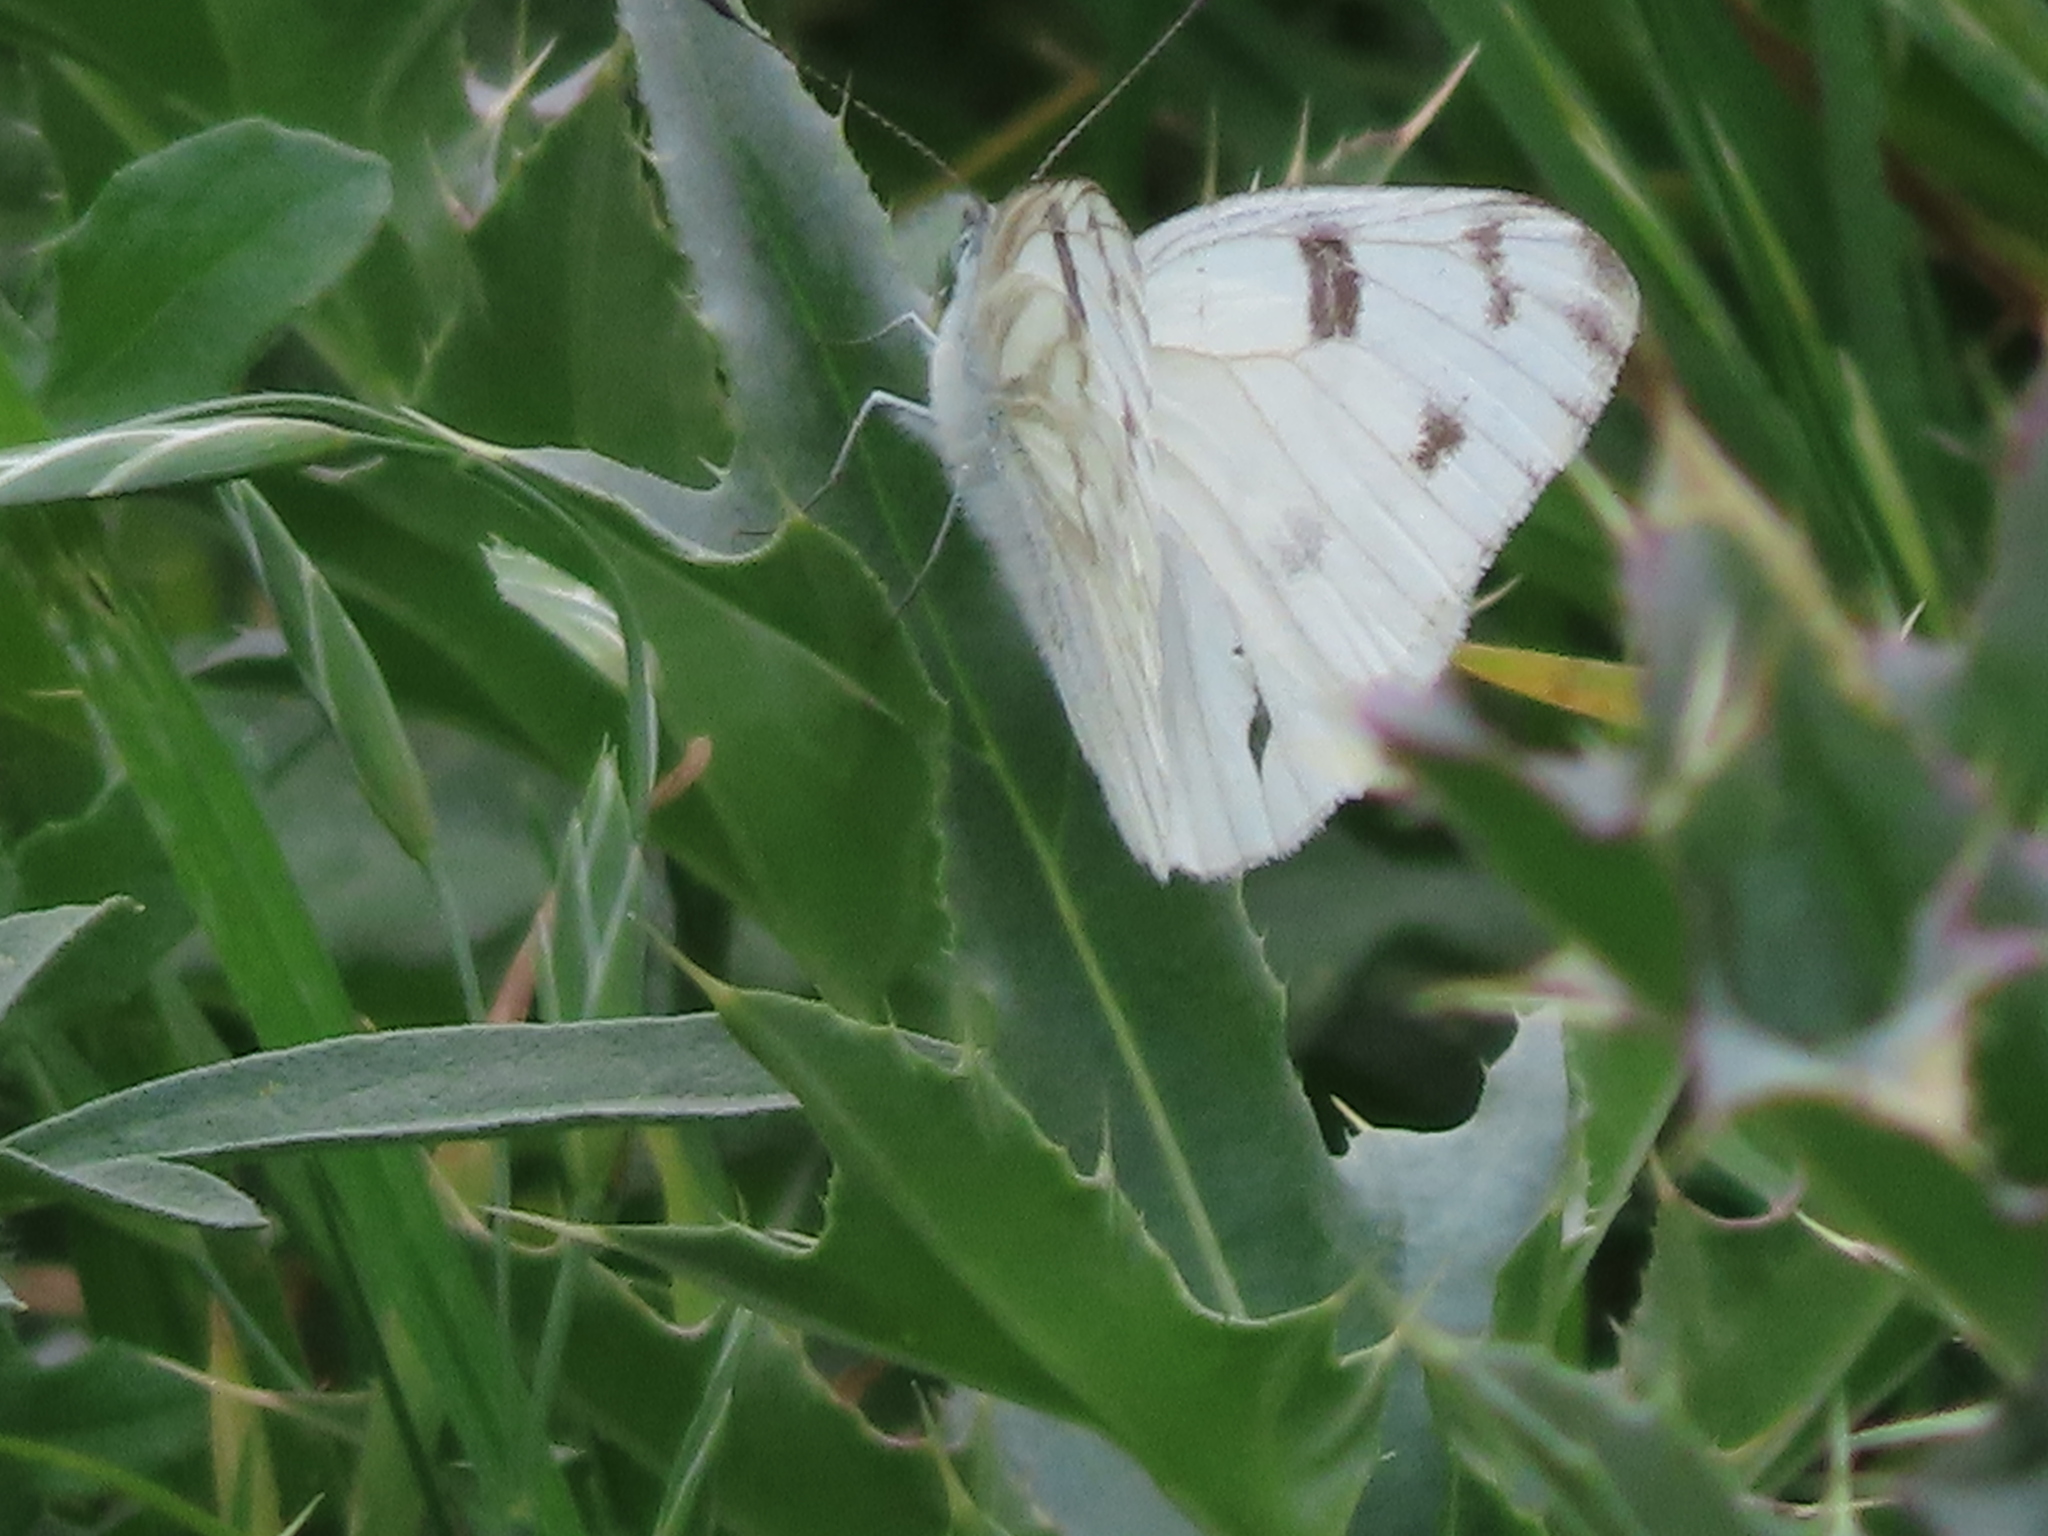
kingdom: Animalia
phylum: Arthropoda
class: Insecta
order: Lepidoptera
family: Pieridae
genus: Pontia
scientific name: Pontia protodice
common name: Checkered white
